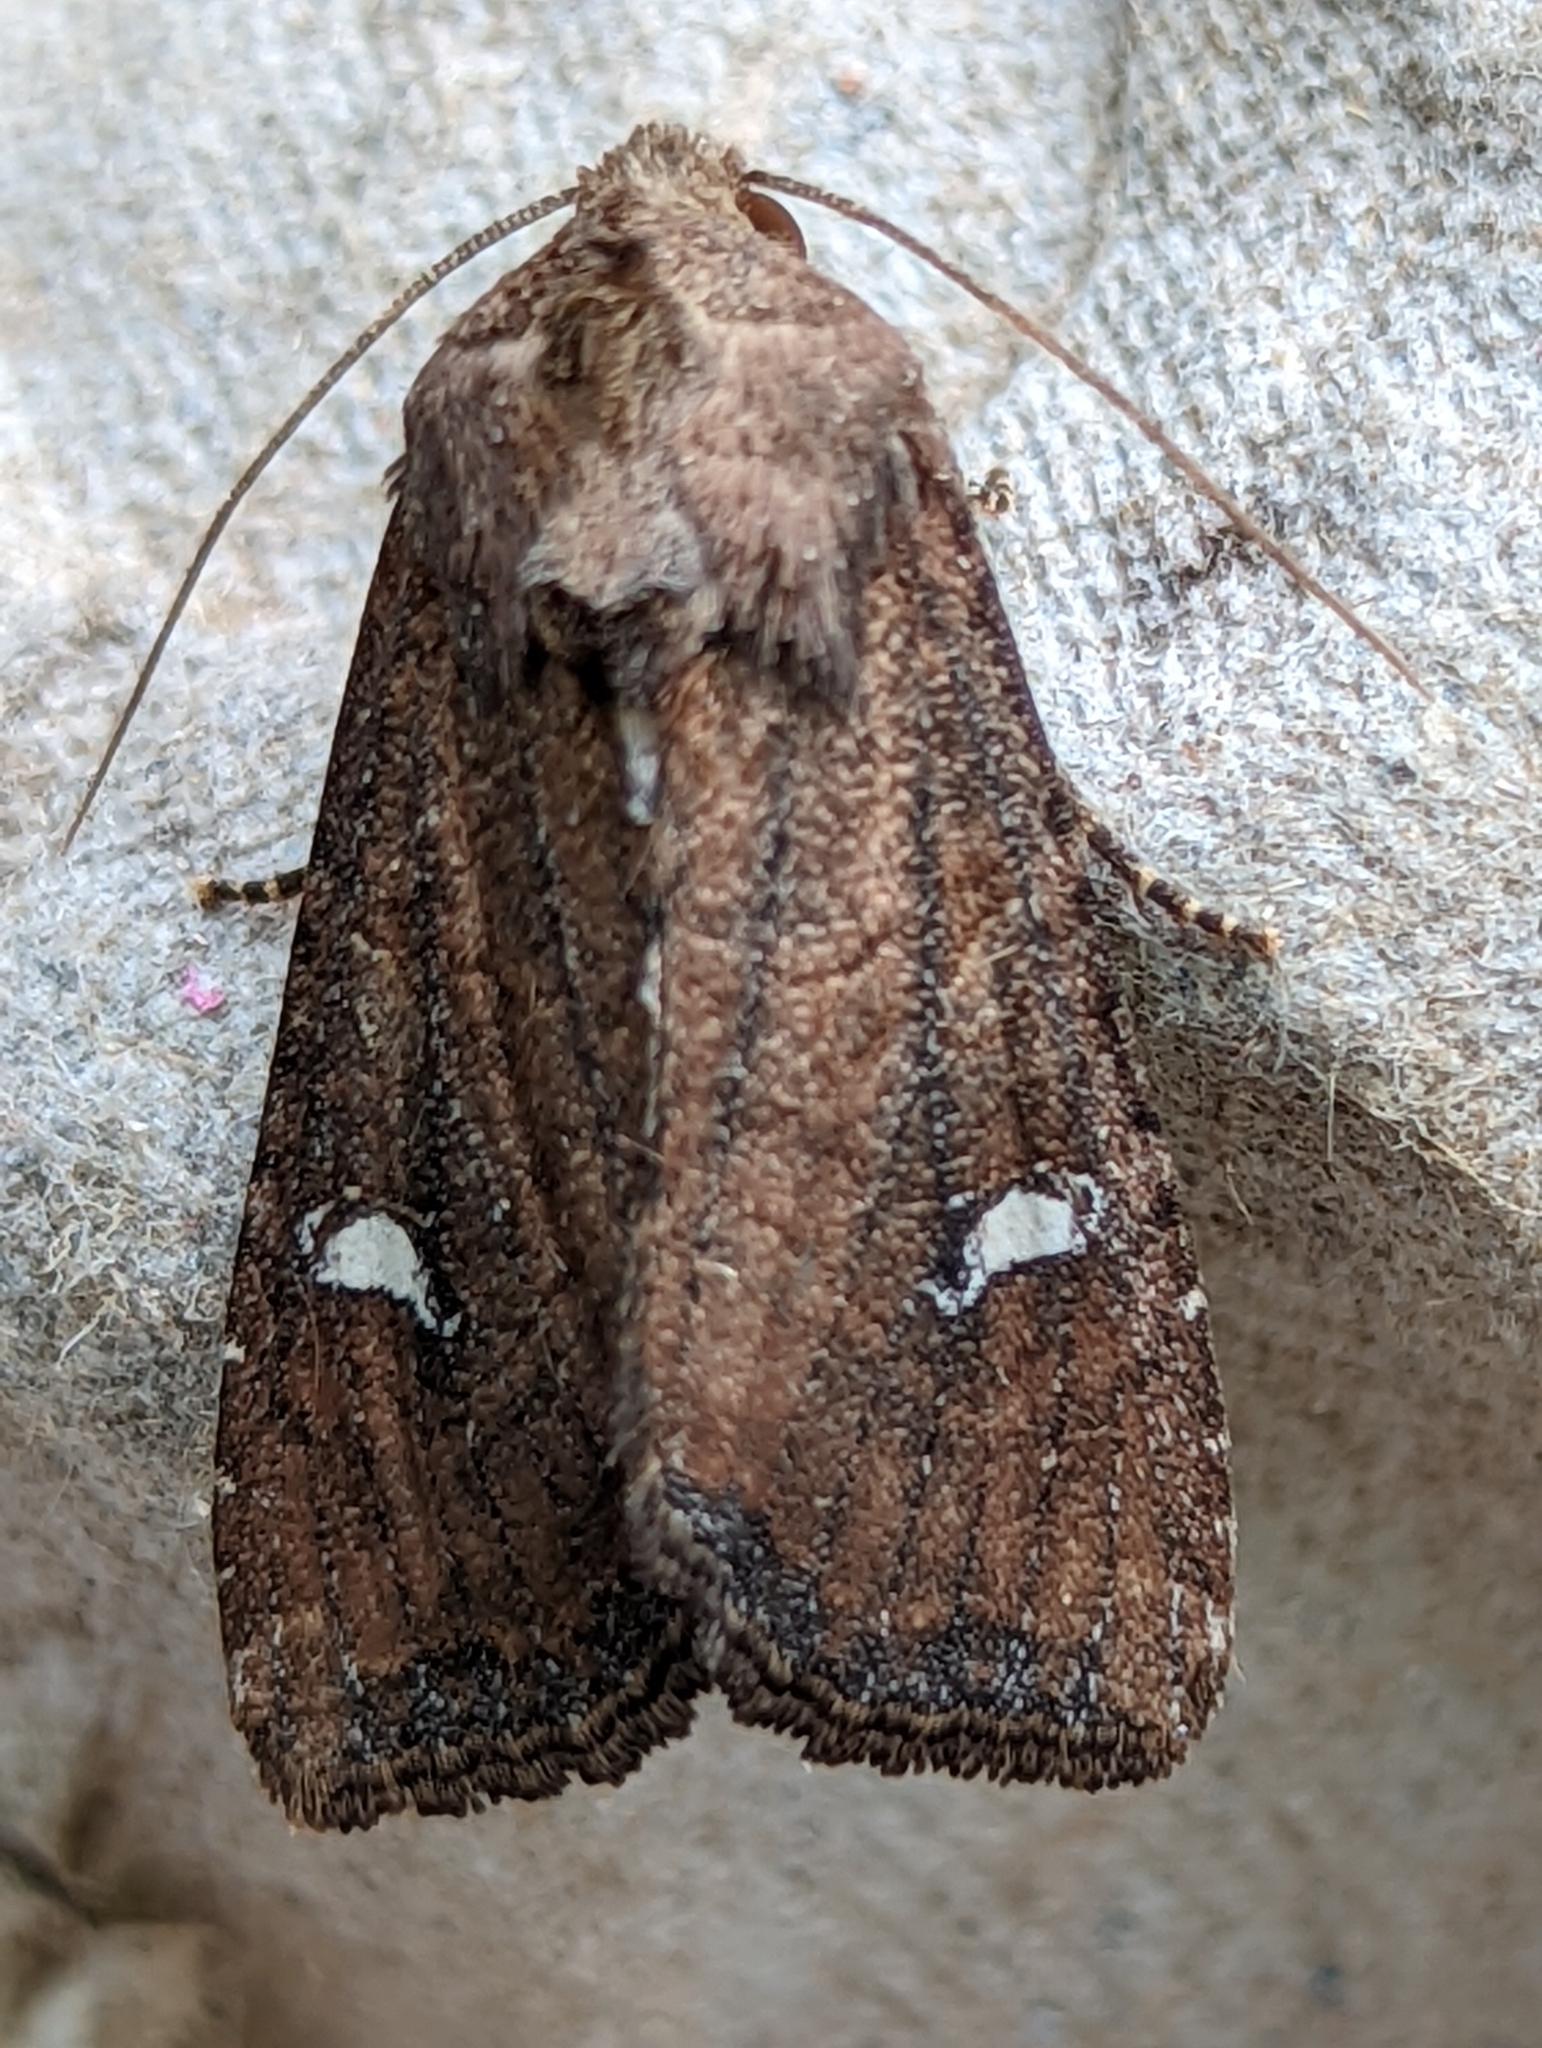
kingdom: Animalia
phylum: Arthropoda
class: Insecta
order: Lepidoptera
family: Noctuidae
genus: Helotropha
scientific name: Helotropha leucostigma
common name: The crescent
